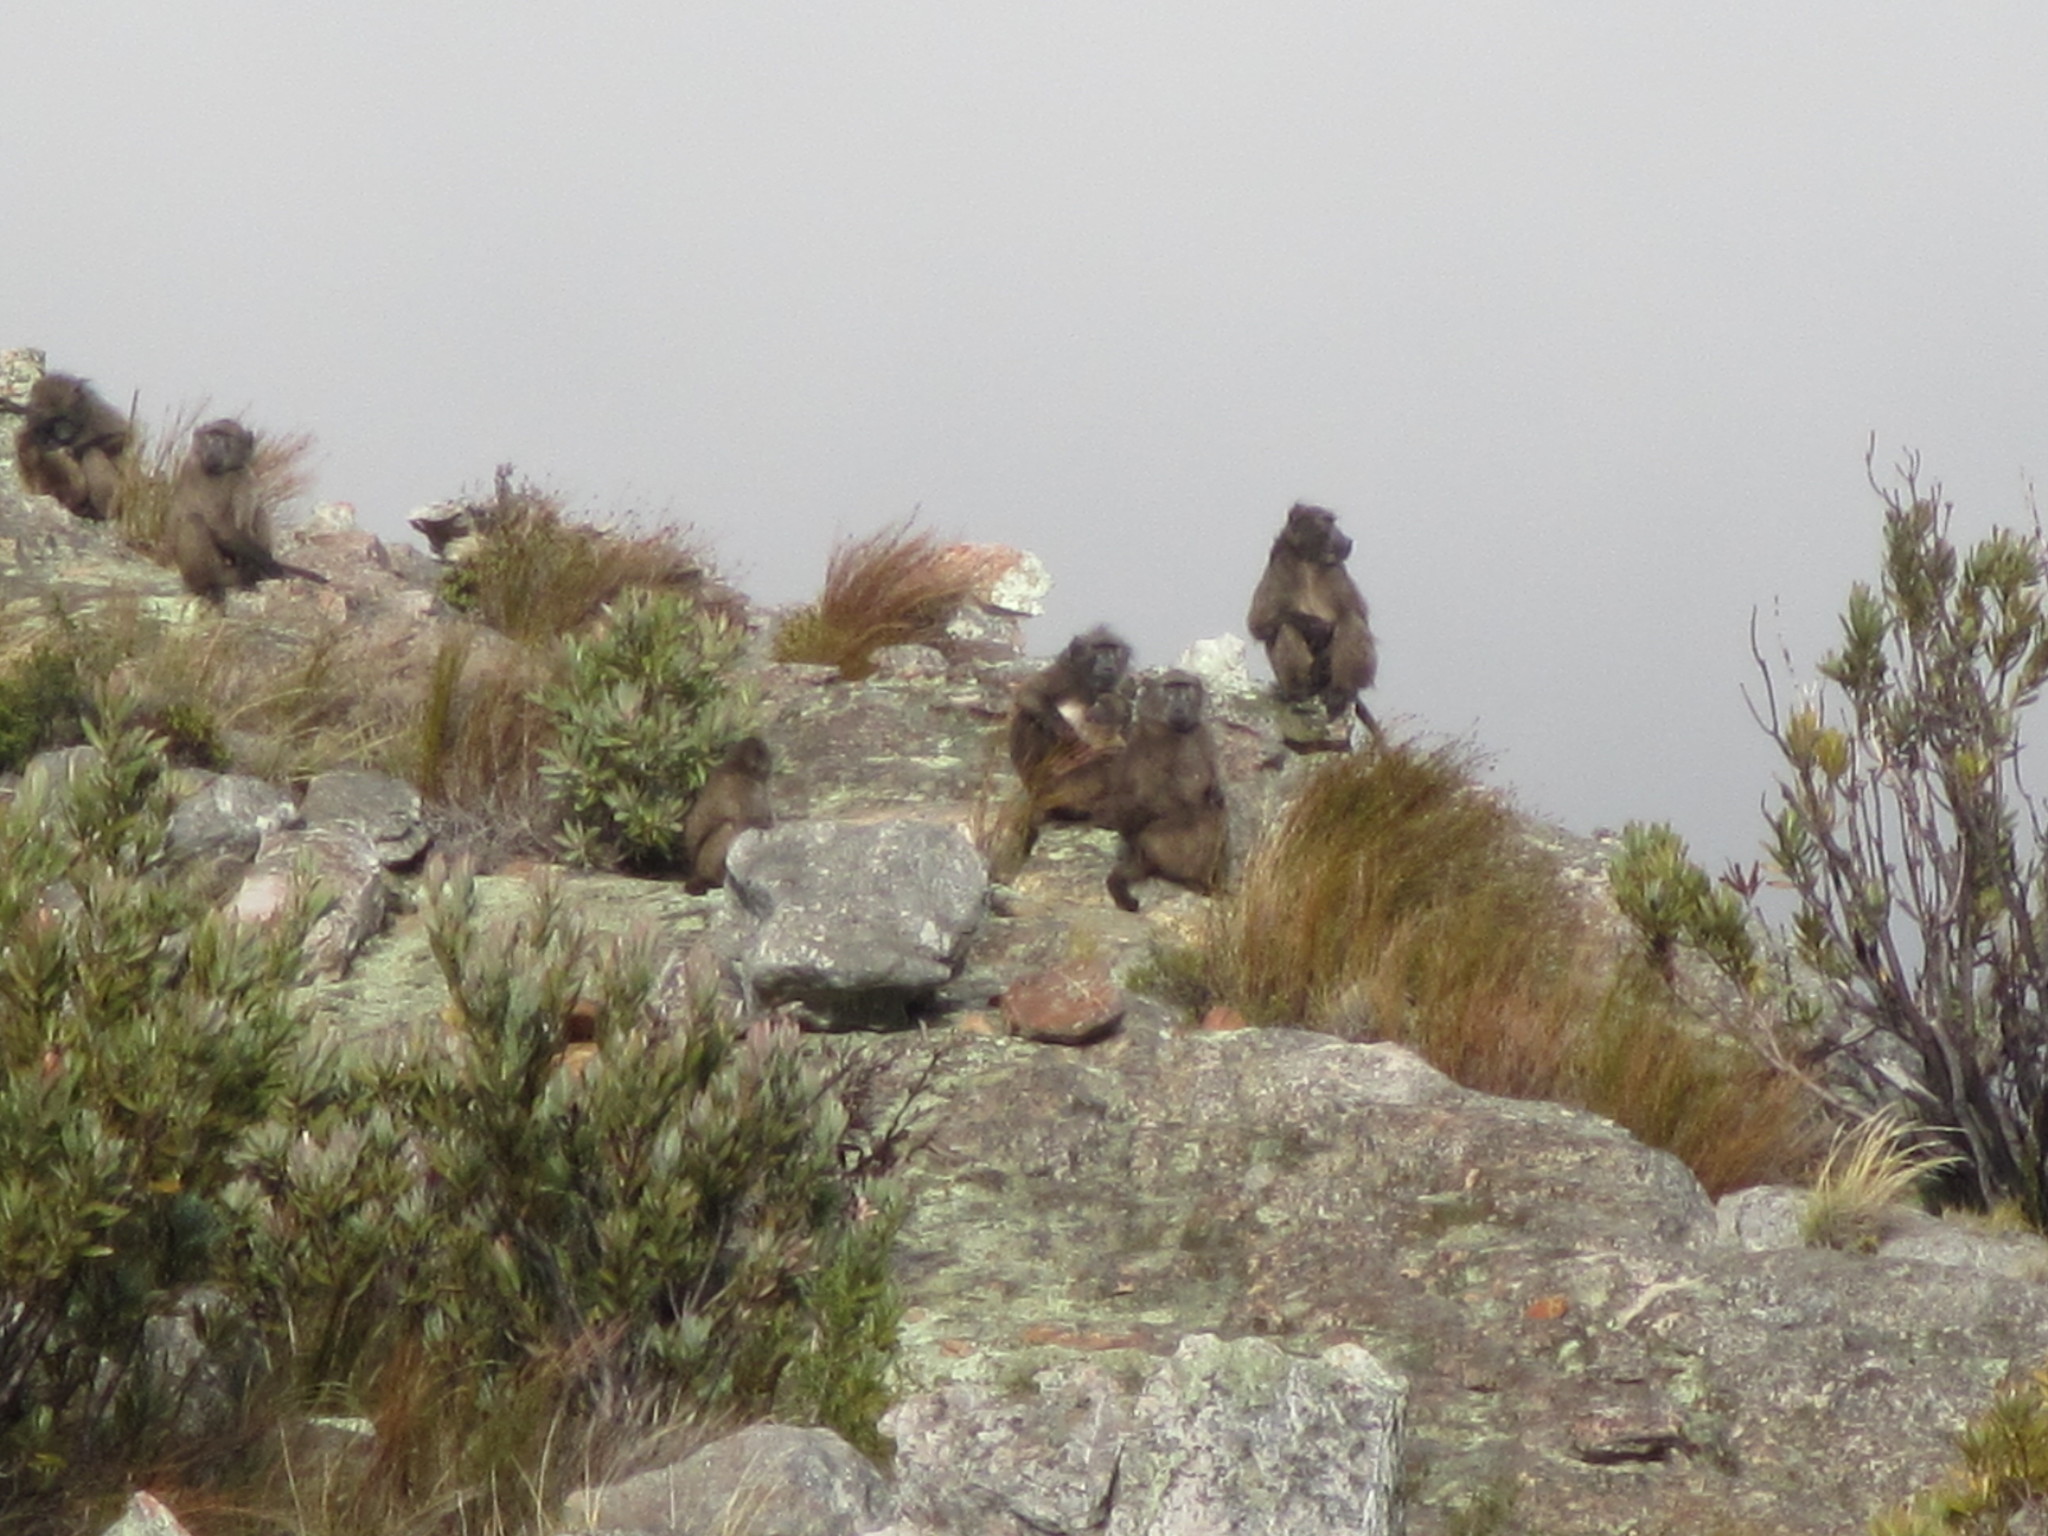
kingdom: Animalia
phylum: Chordata
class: Mammalia
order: Primates
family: Cercopithecidae
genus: Papio
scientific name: Papio ursinus
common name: Chacma baboon
